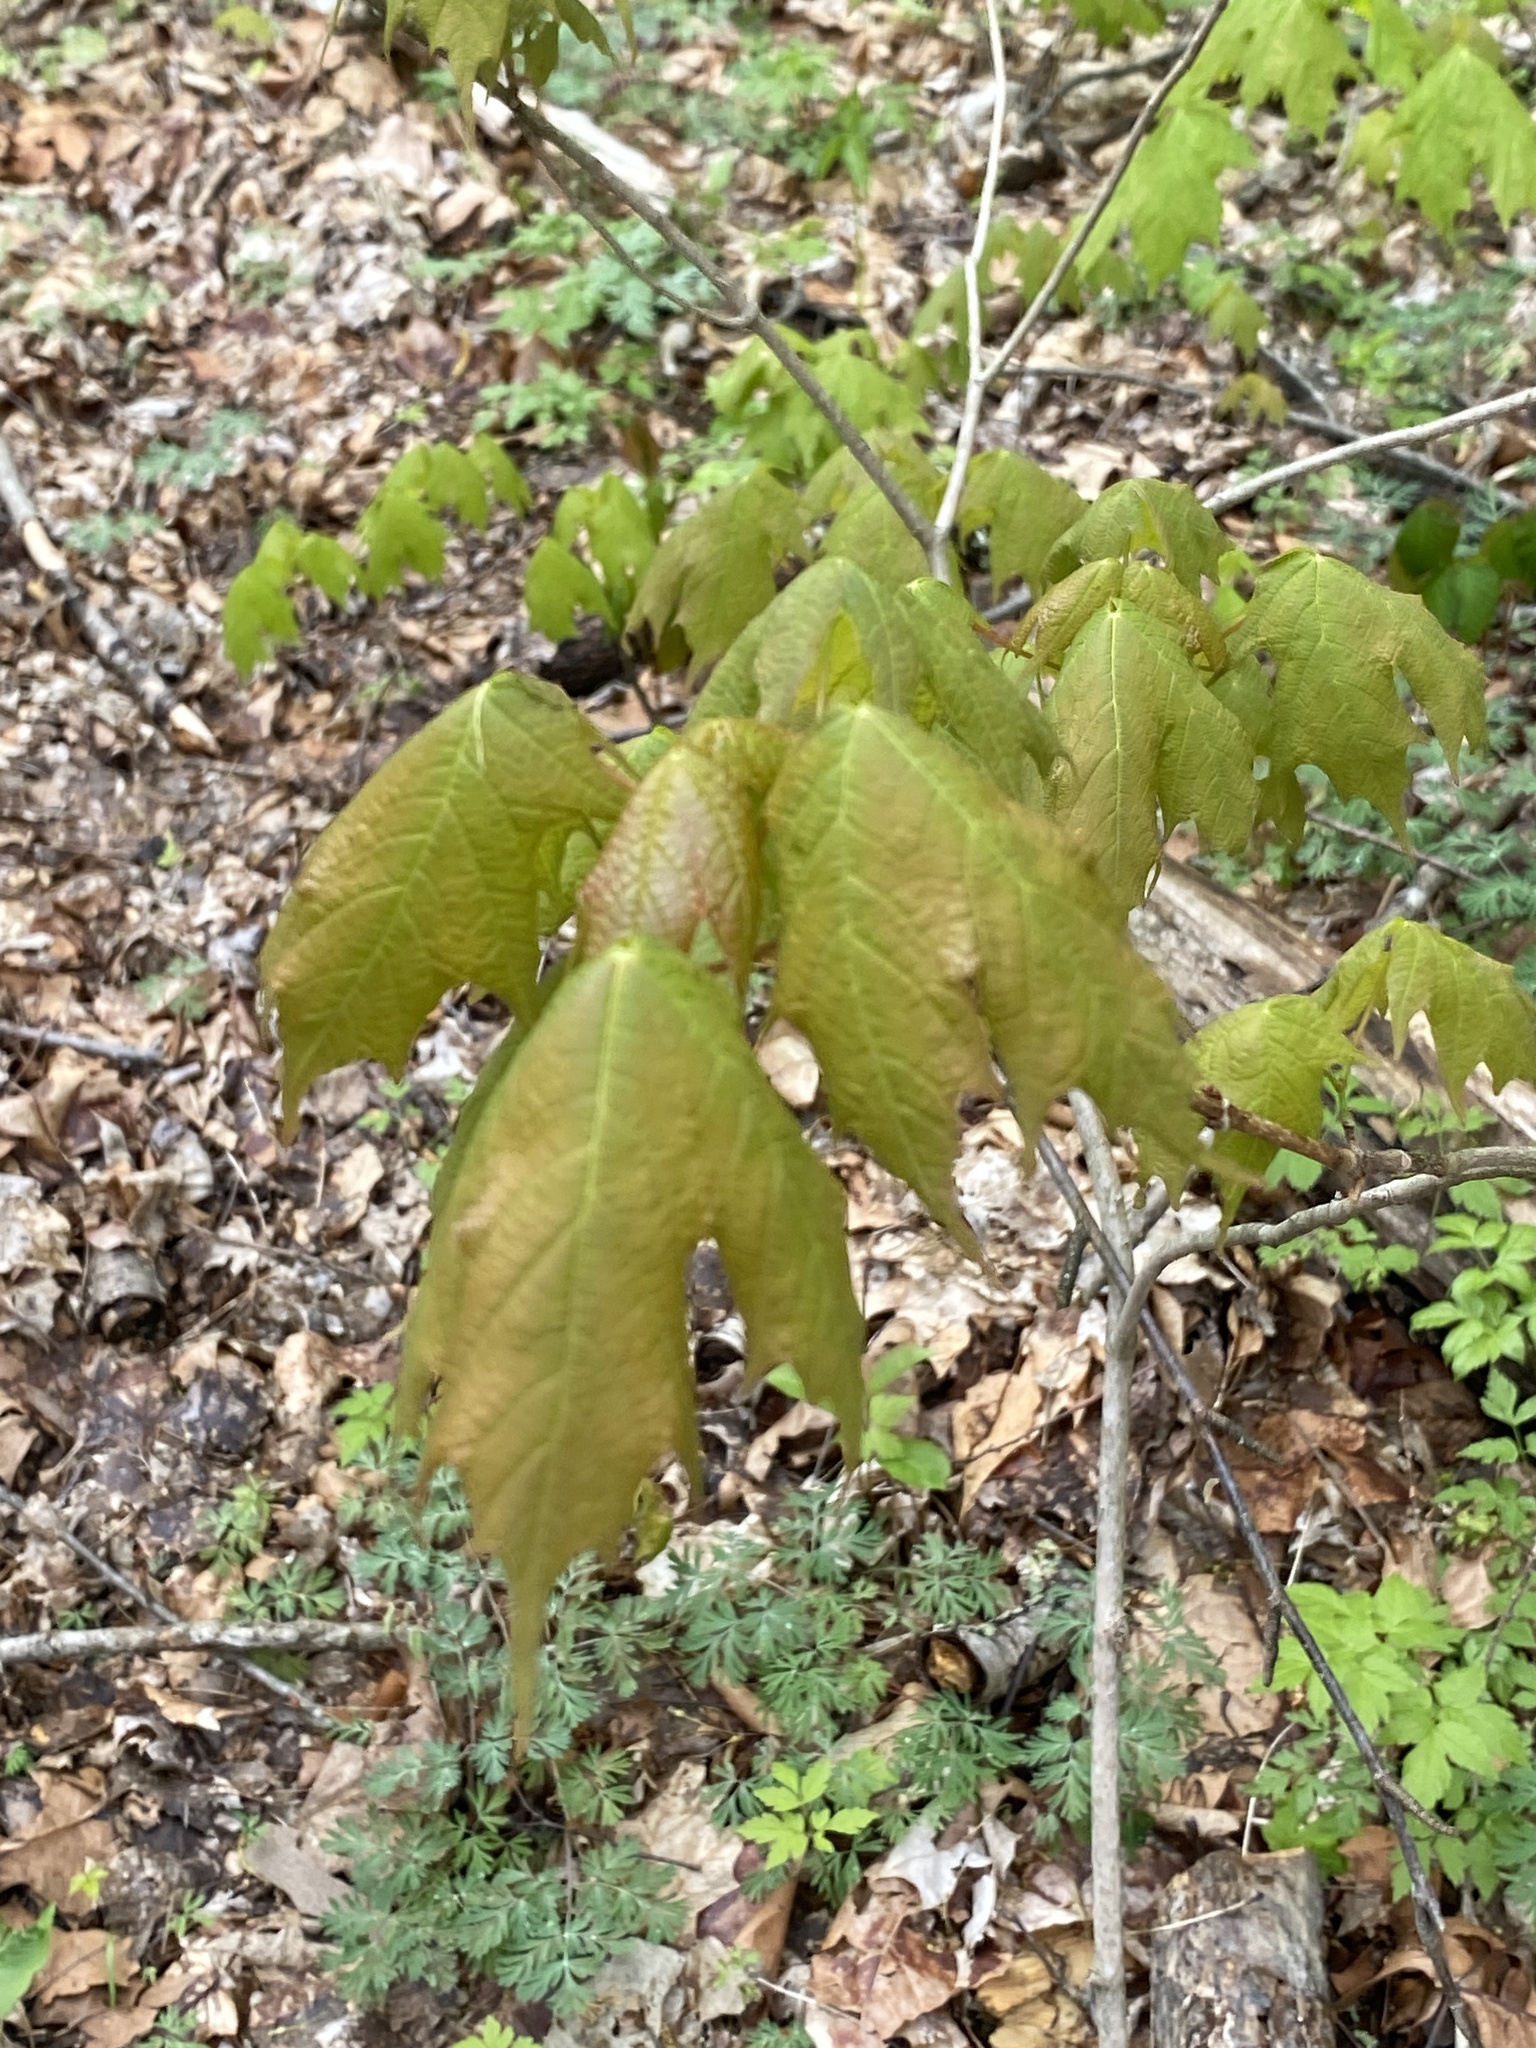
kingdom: Plantae
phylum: Tracheophyta
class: Magnoliopsida
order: Sapindales
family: Sapindaceae
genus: Acer
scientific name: Acer saccharum
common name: Sugar maple
